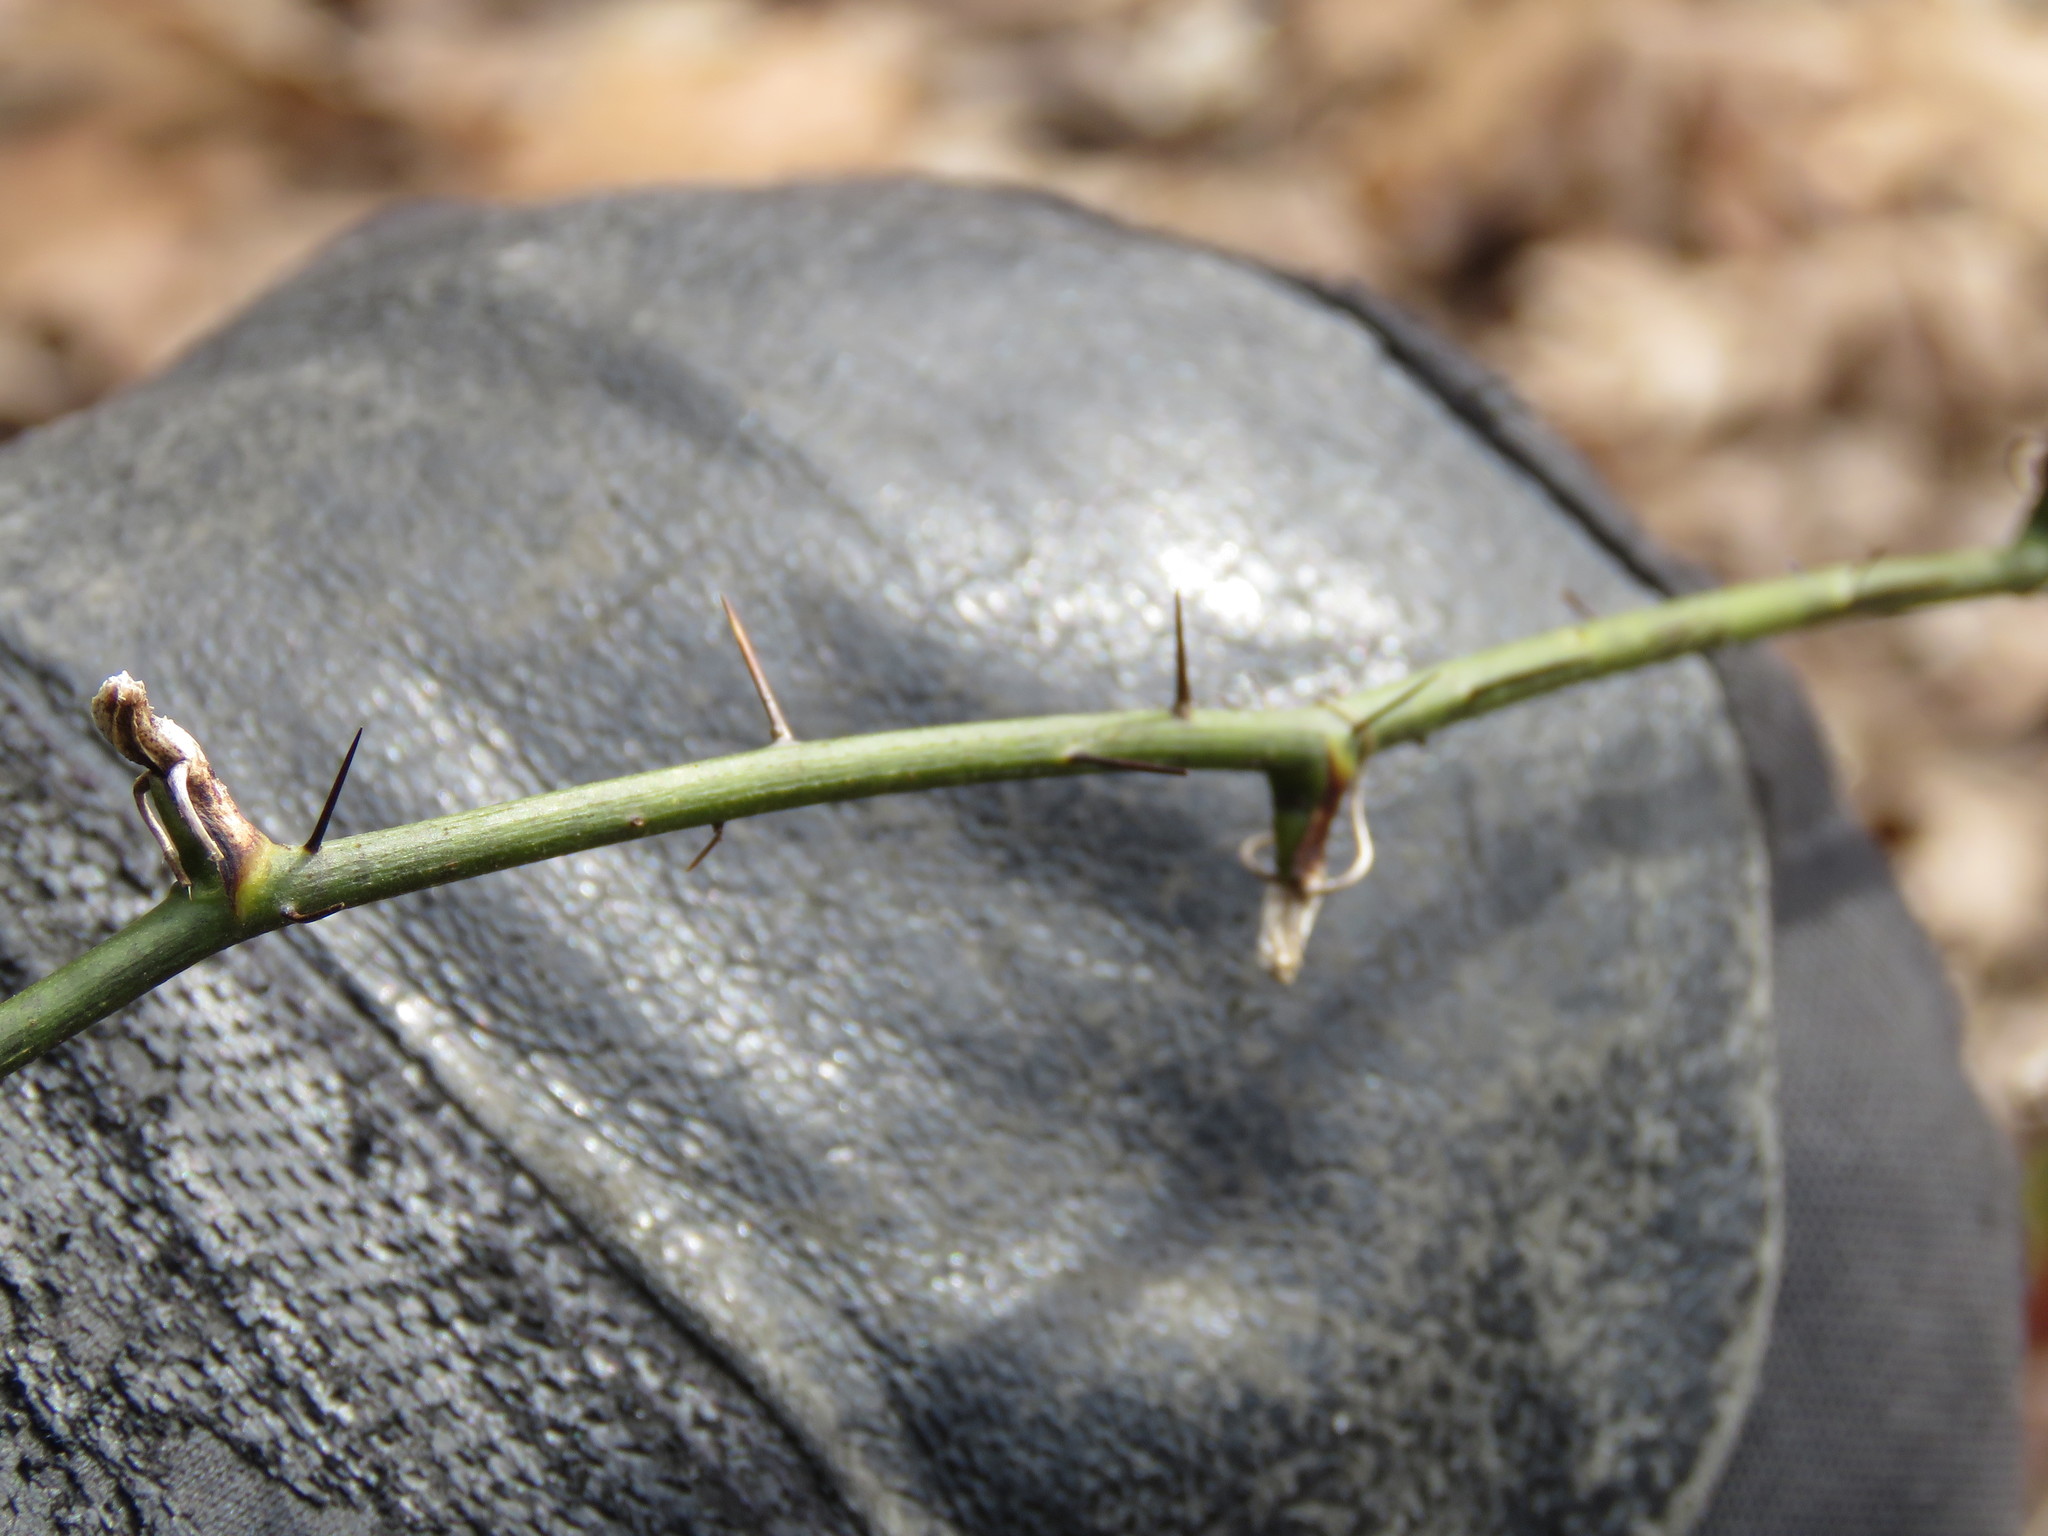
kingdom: Plantae
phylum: Tracheophyta
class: Liliopsida
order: Liliales
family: Smilacaceae
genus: Smilax
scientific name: Smilax tamnoides
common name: Hellfetter
